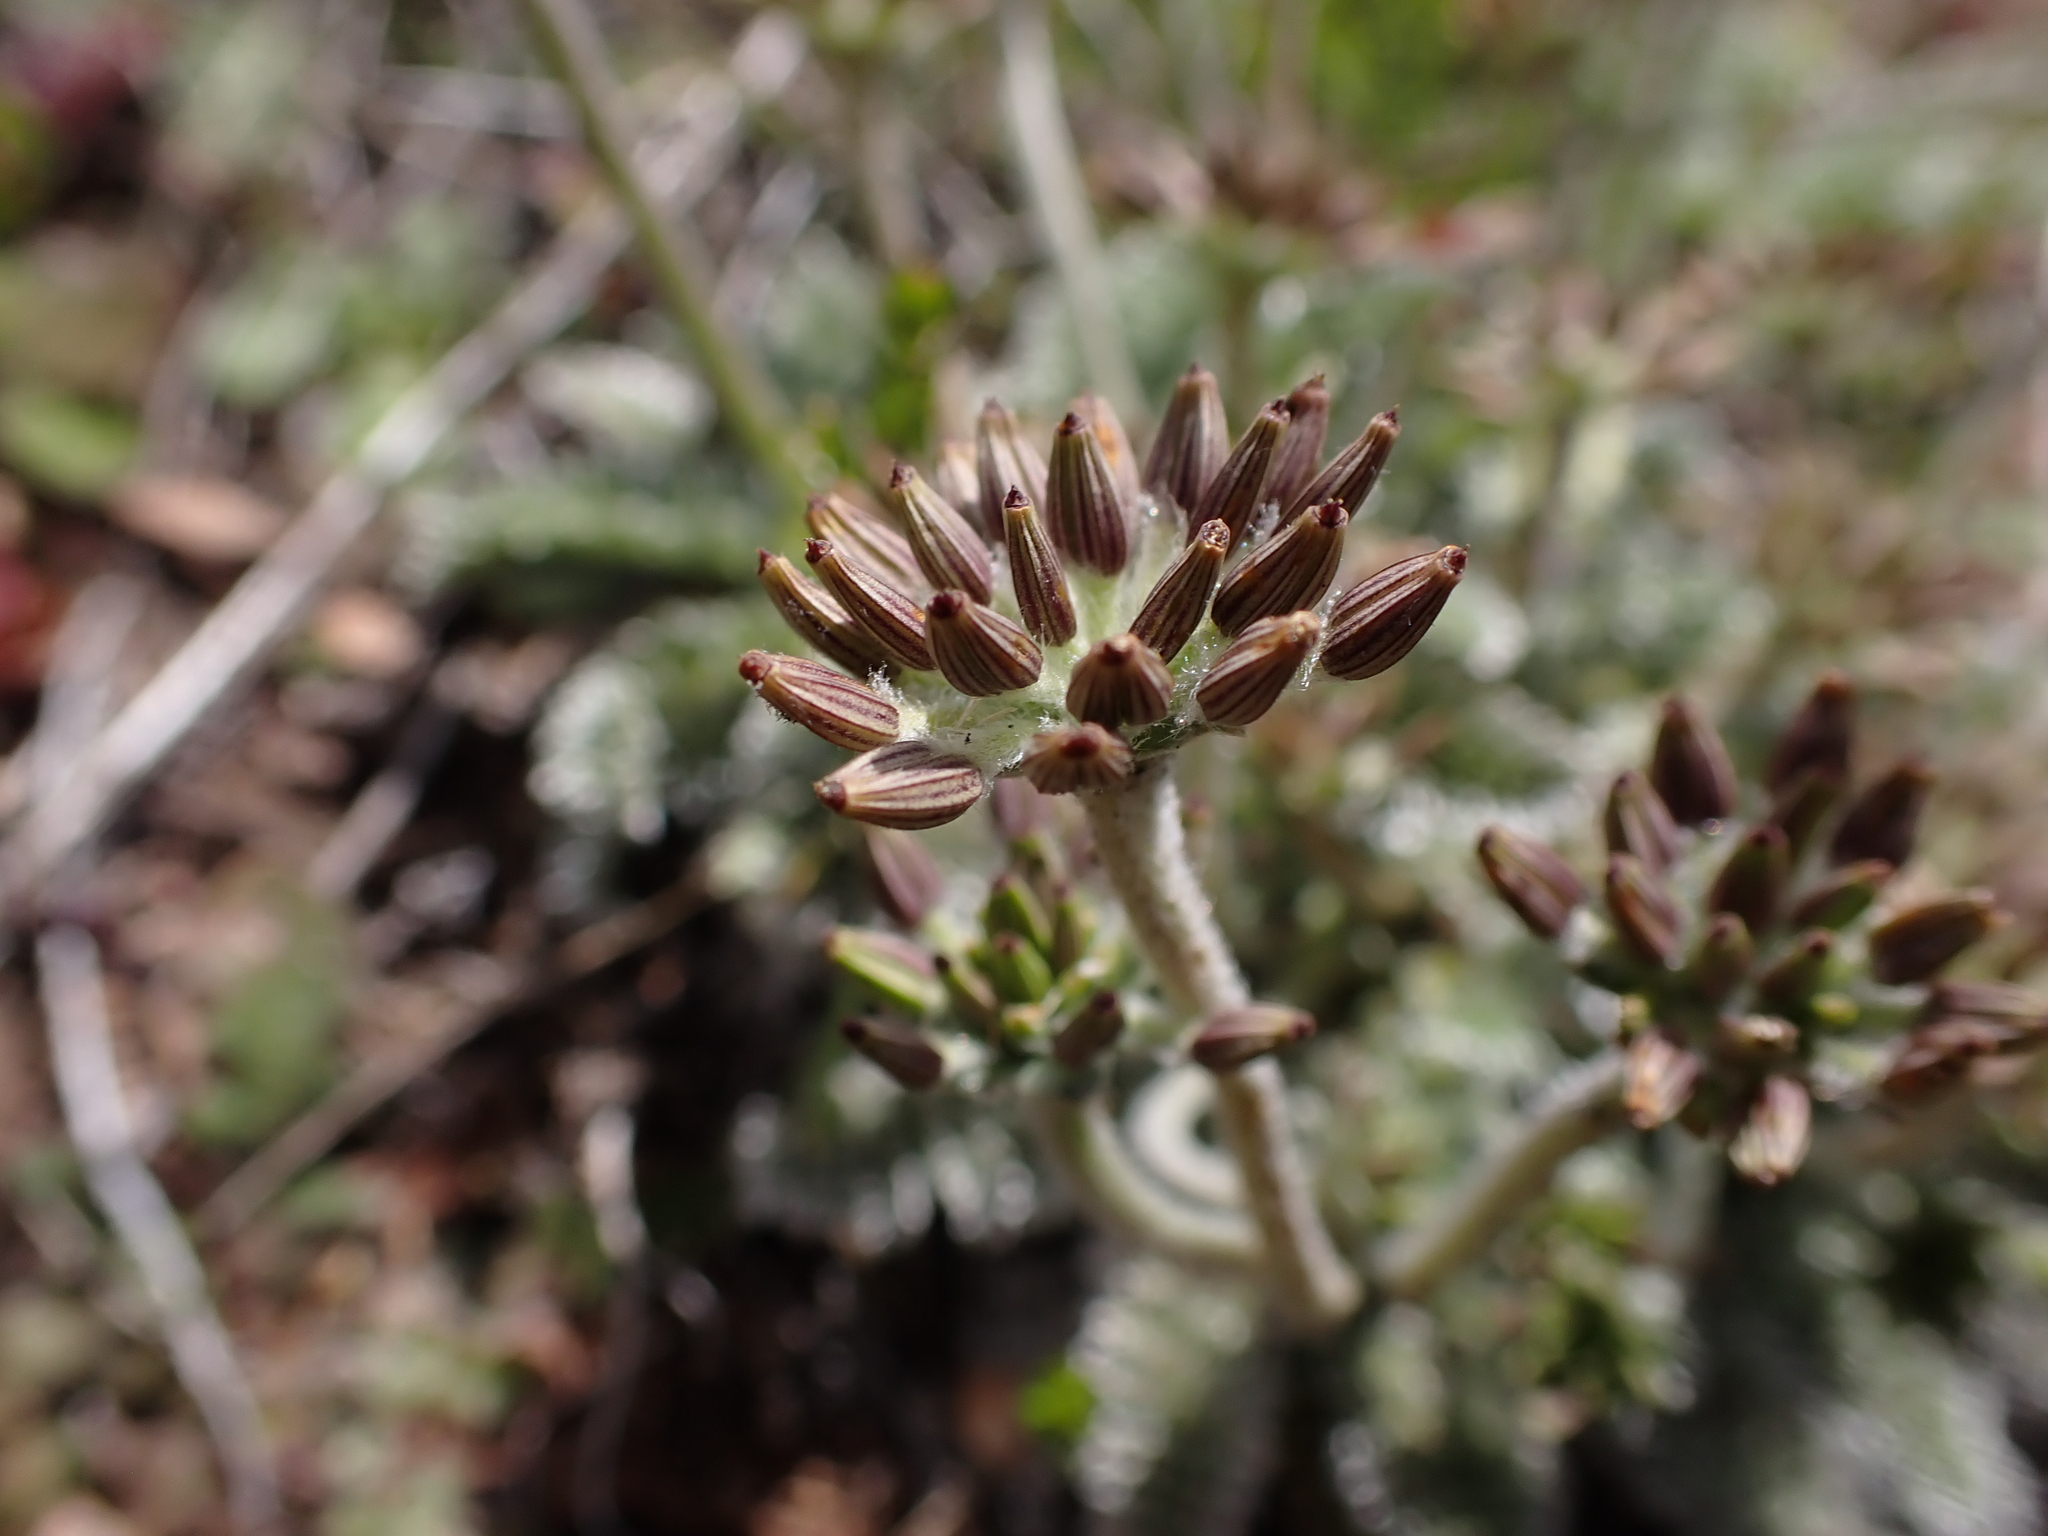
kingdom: Plantae
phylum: Tracheophyta
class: Magnoliopsida
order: Apiales
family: Apiaceae
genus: Chaerophyllum
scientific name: Chaerophyllum argenteum
